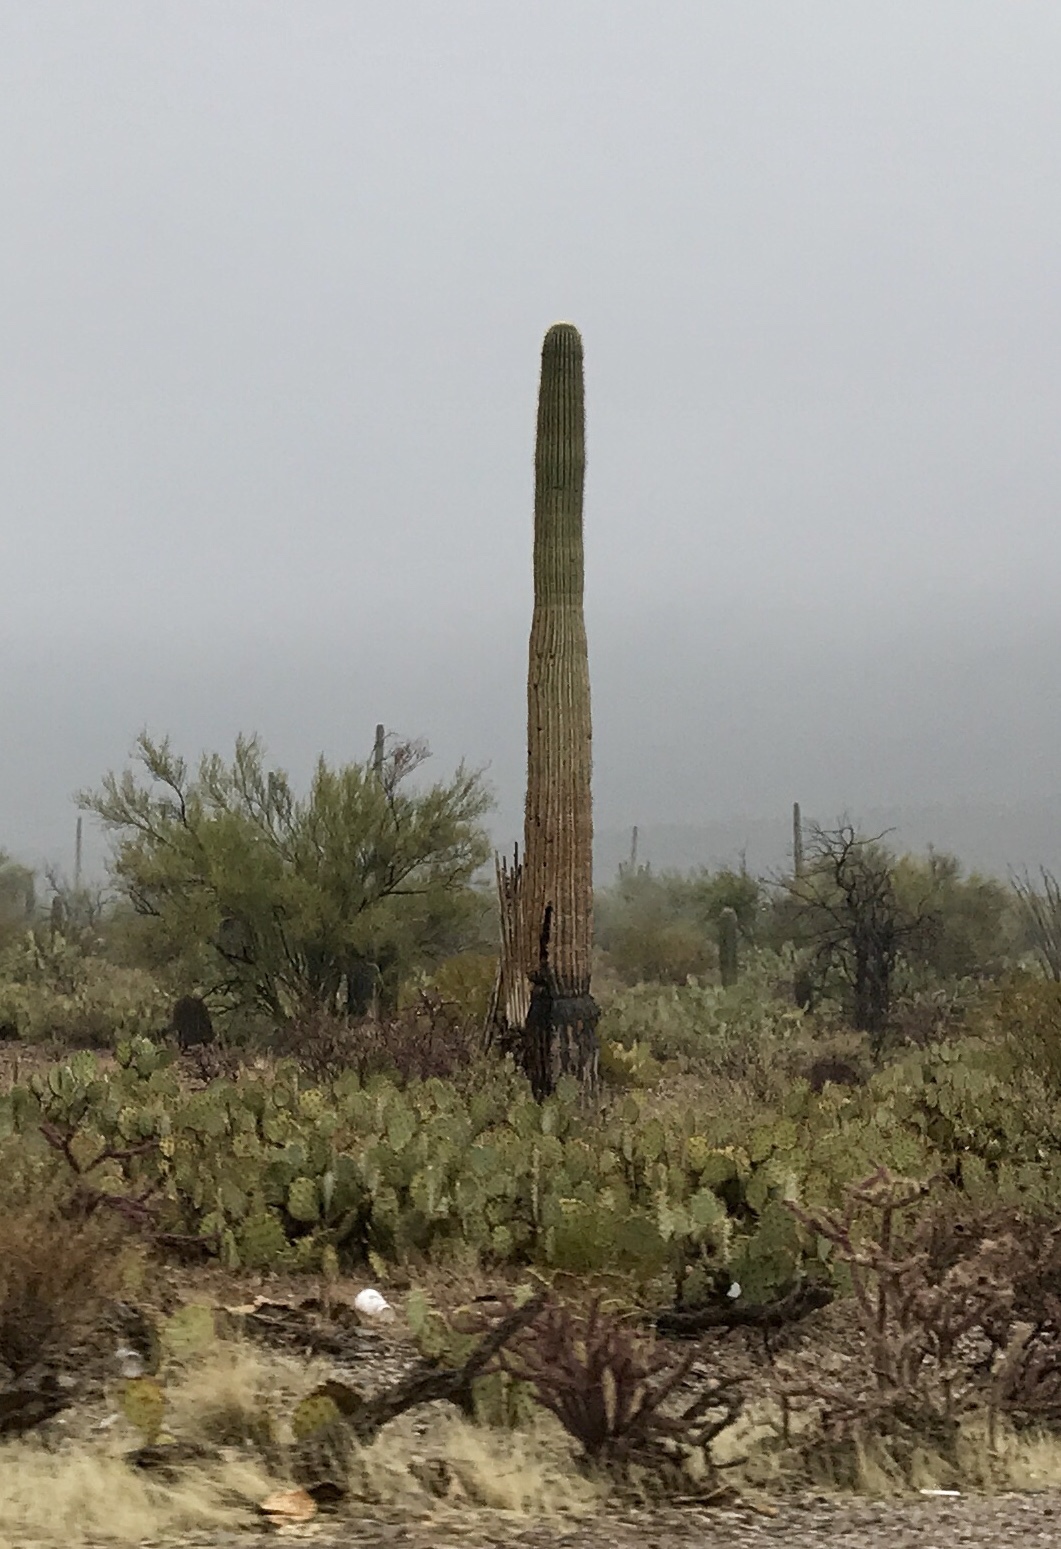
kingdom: Plantae
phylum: Tracheophyta
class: Magnoliopsida
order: Caryophyllales
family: Cactaceae
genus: Carnegiea
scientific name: Carnegiea gigantea
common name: Saguaro
